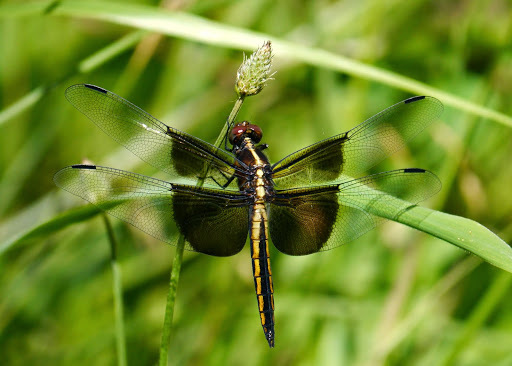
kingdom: Animalia
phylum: Arthropoda
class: Insecta
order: Odonata
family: Libellulidae
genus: Libellula
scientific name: Libellula luctuosa
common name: Widow skimmer
